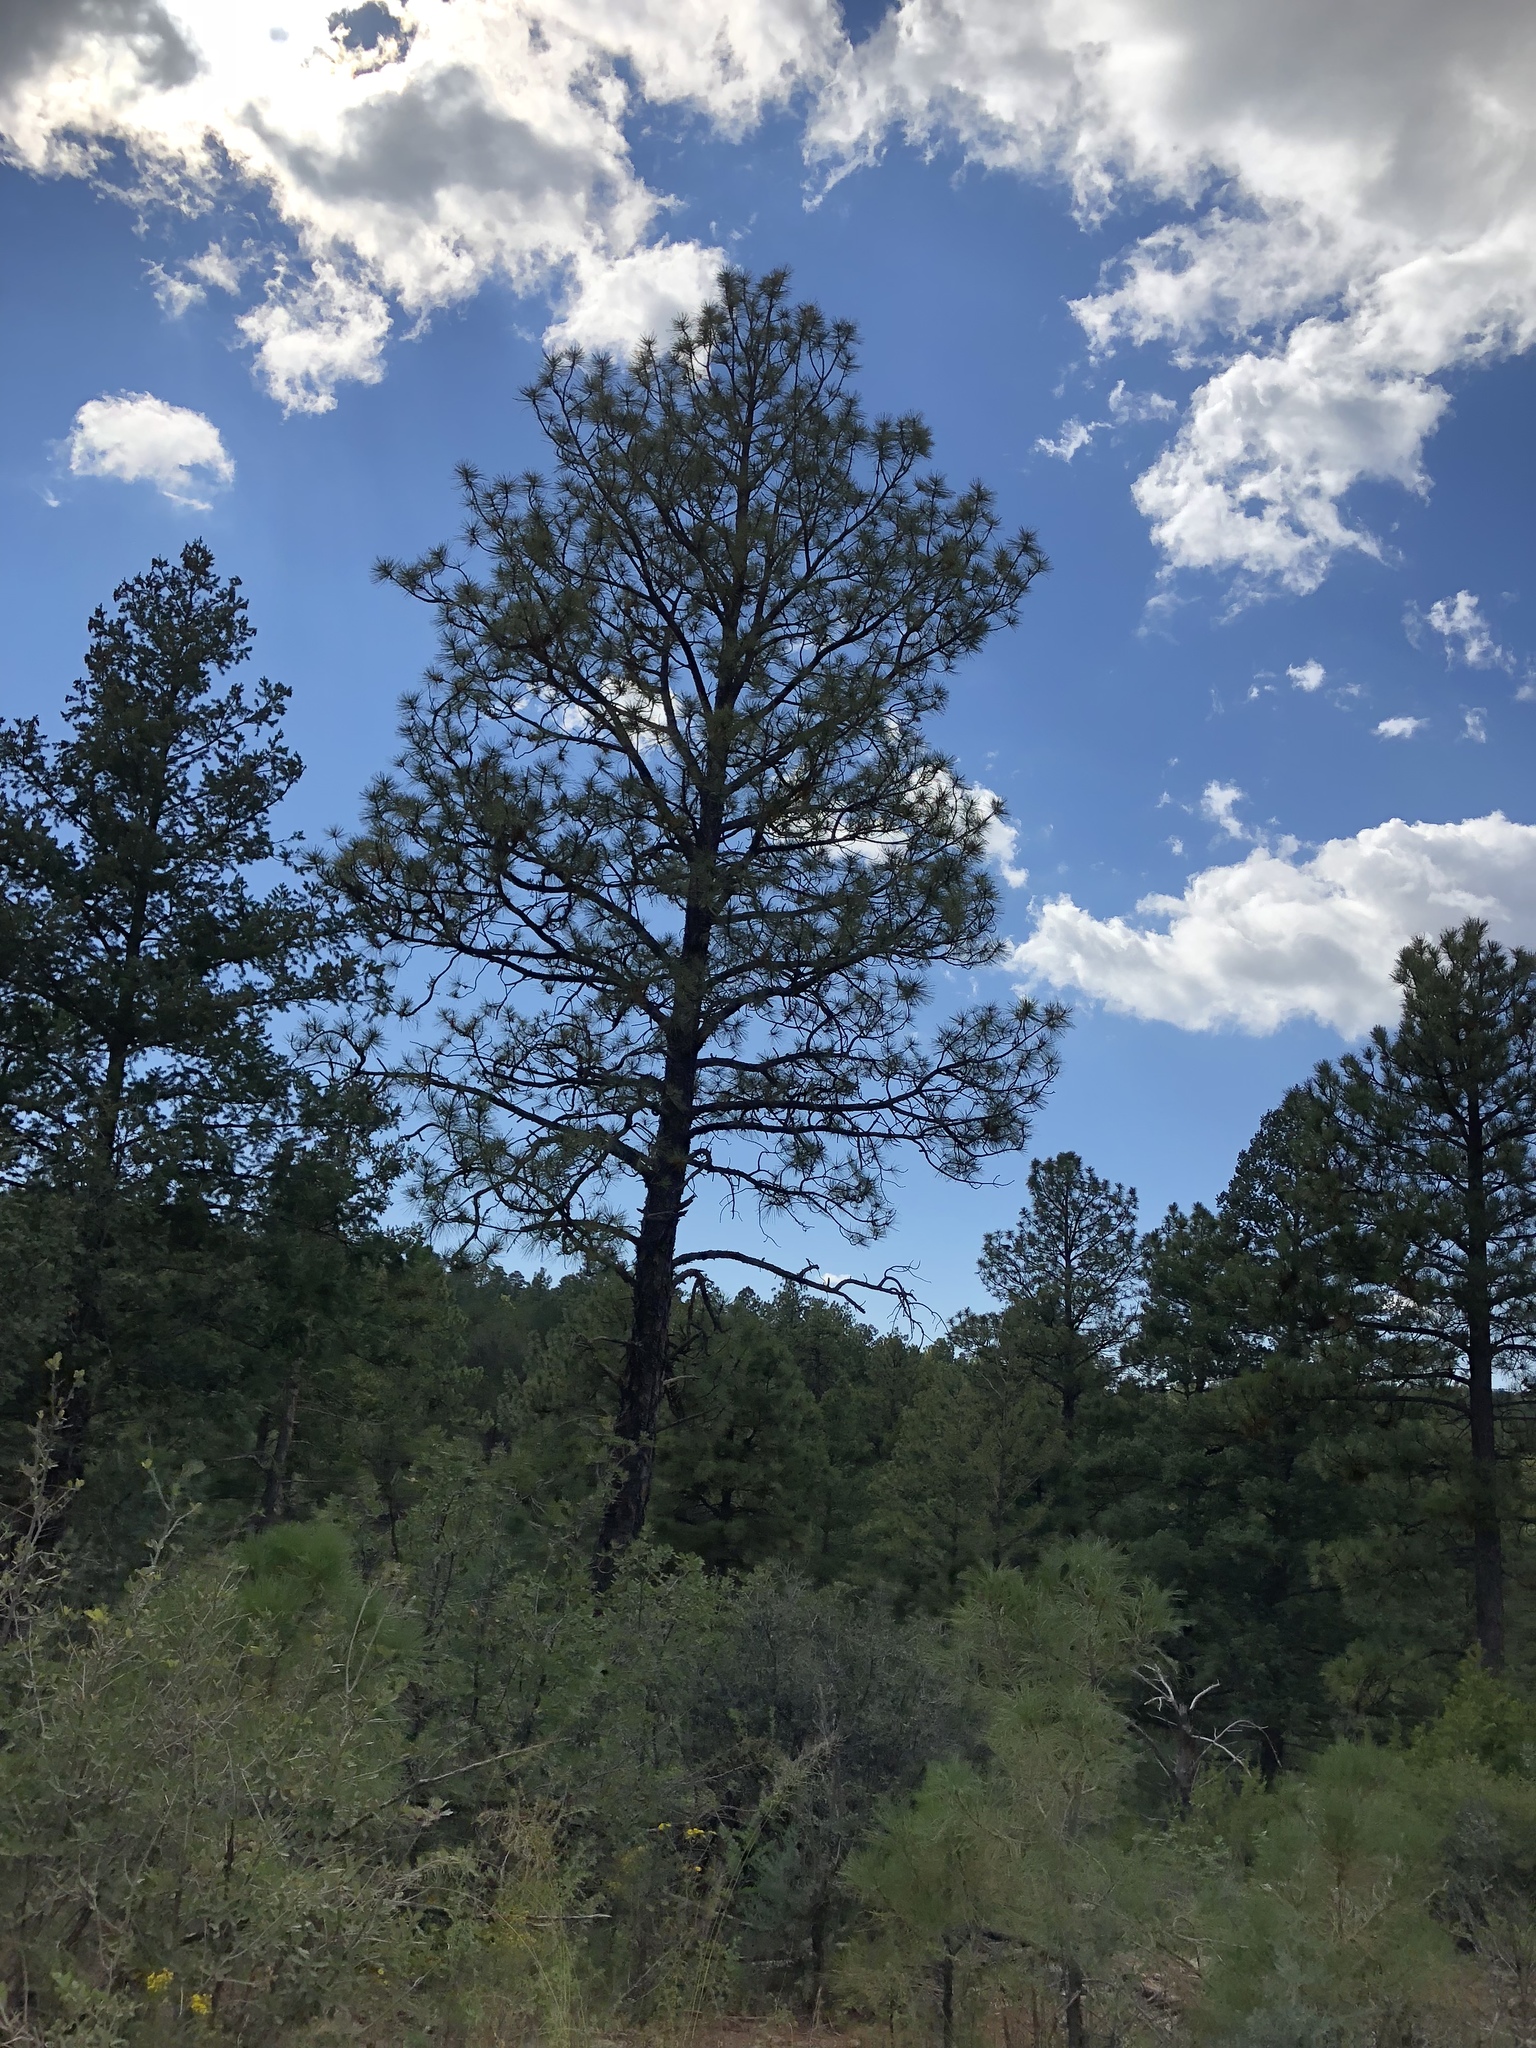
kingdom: Plantae
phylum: Tracheophyta
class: Pinopsida
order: Pinales
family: Pinaceae
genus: Pinus
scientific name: Pinus ponderosa
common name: Western yellow-pine
